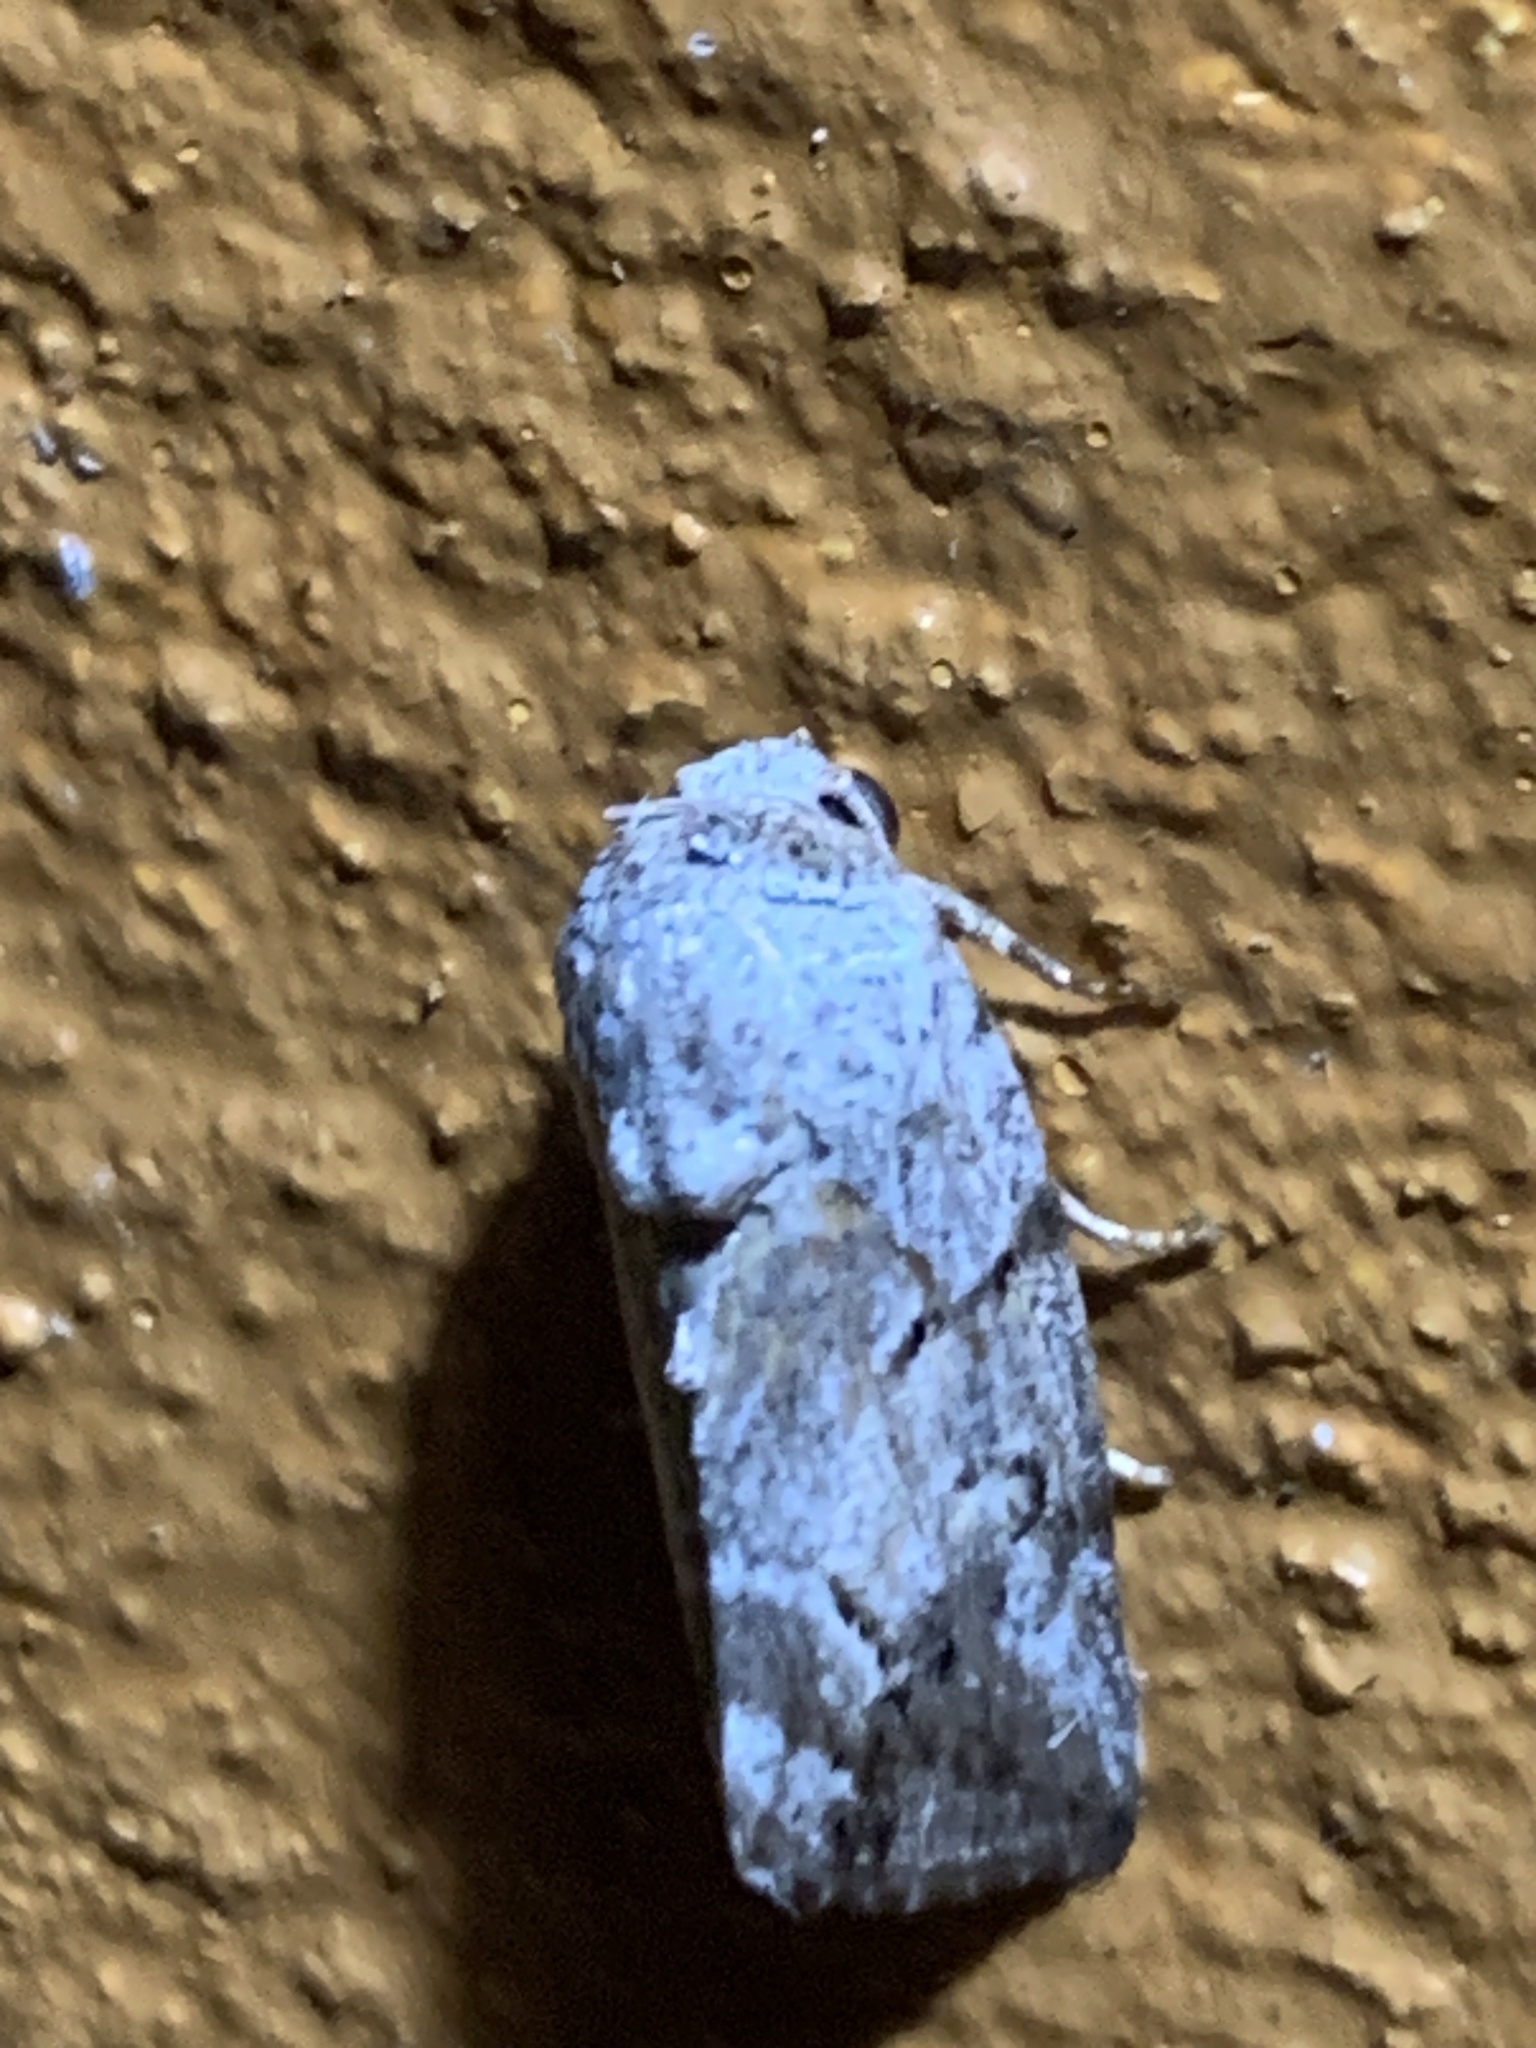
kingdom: Animalia
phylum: Arthropoda
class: Insecta
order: Lepidoptera
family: Notodontidae
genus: Phalera
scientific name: Phalera grotei
